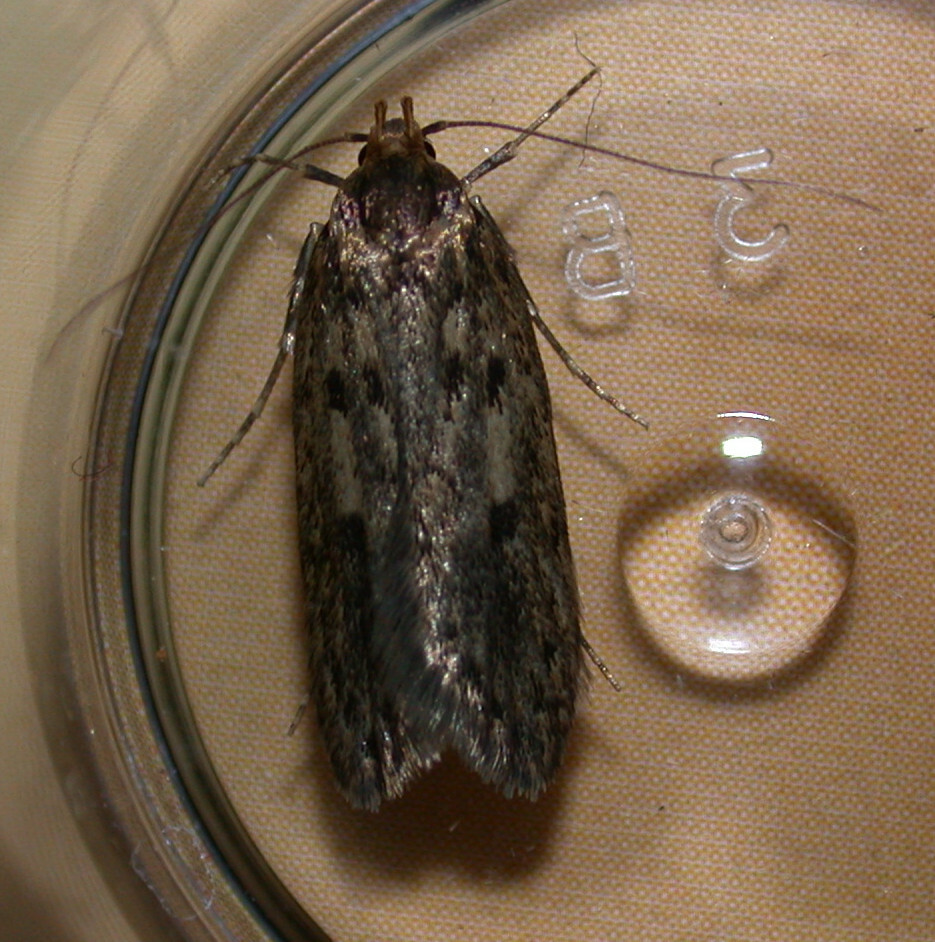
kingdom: Animalia
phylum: Arthropoda
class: Insecta
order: Lepidoptera
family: Oecophoridae
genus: Hofmannophila
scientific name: Hofmannophila pseudospretella
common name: Brown house moth
